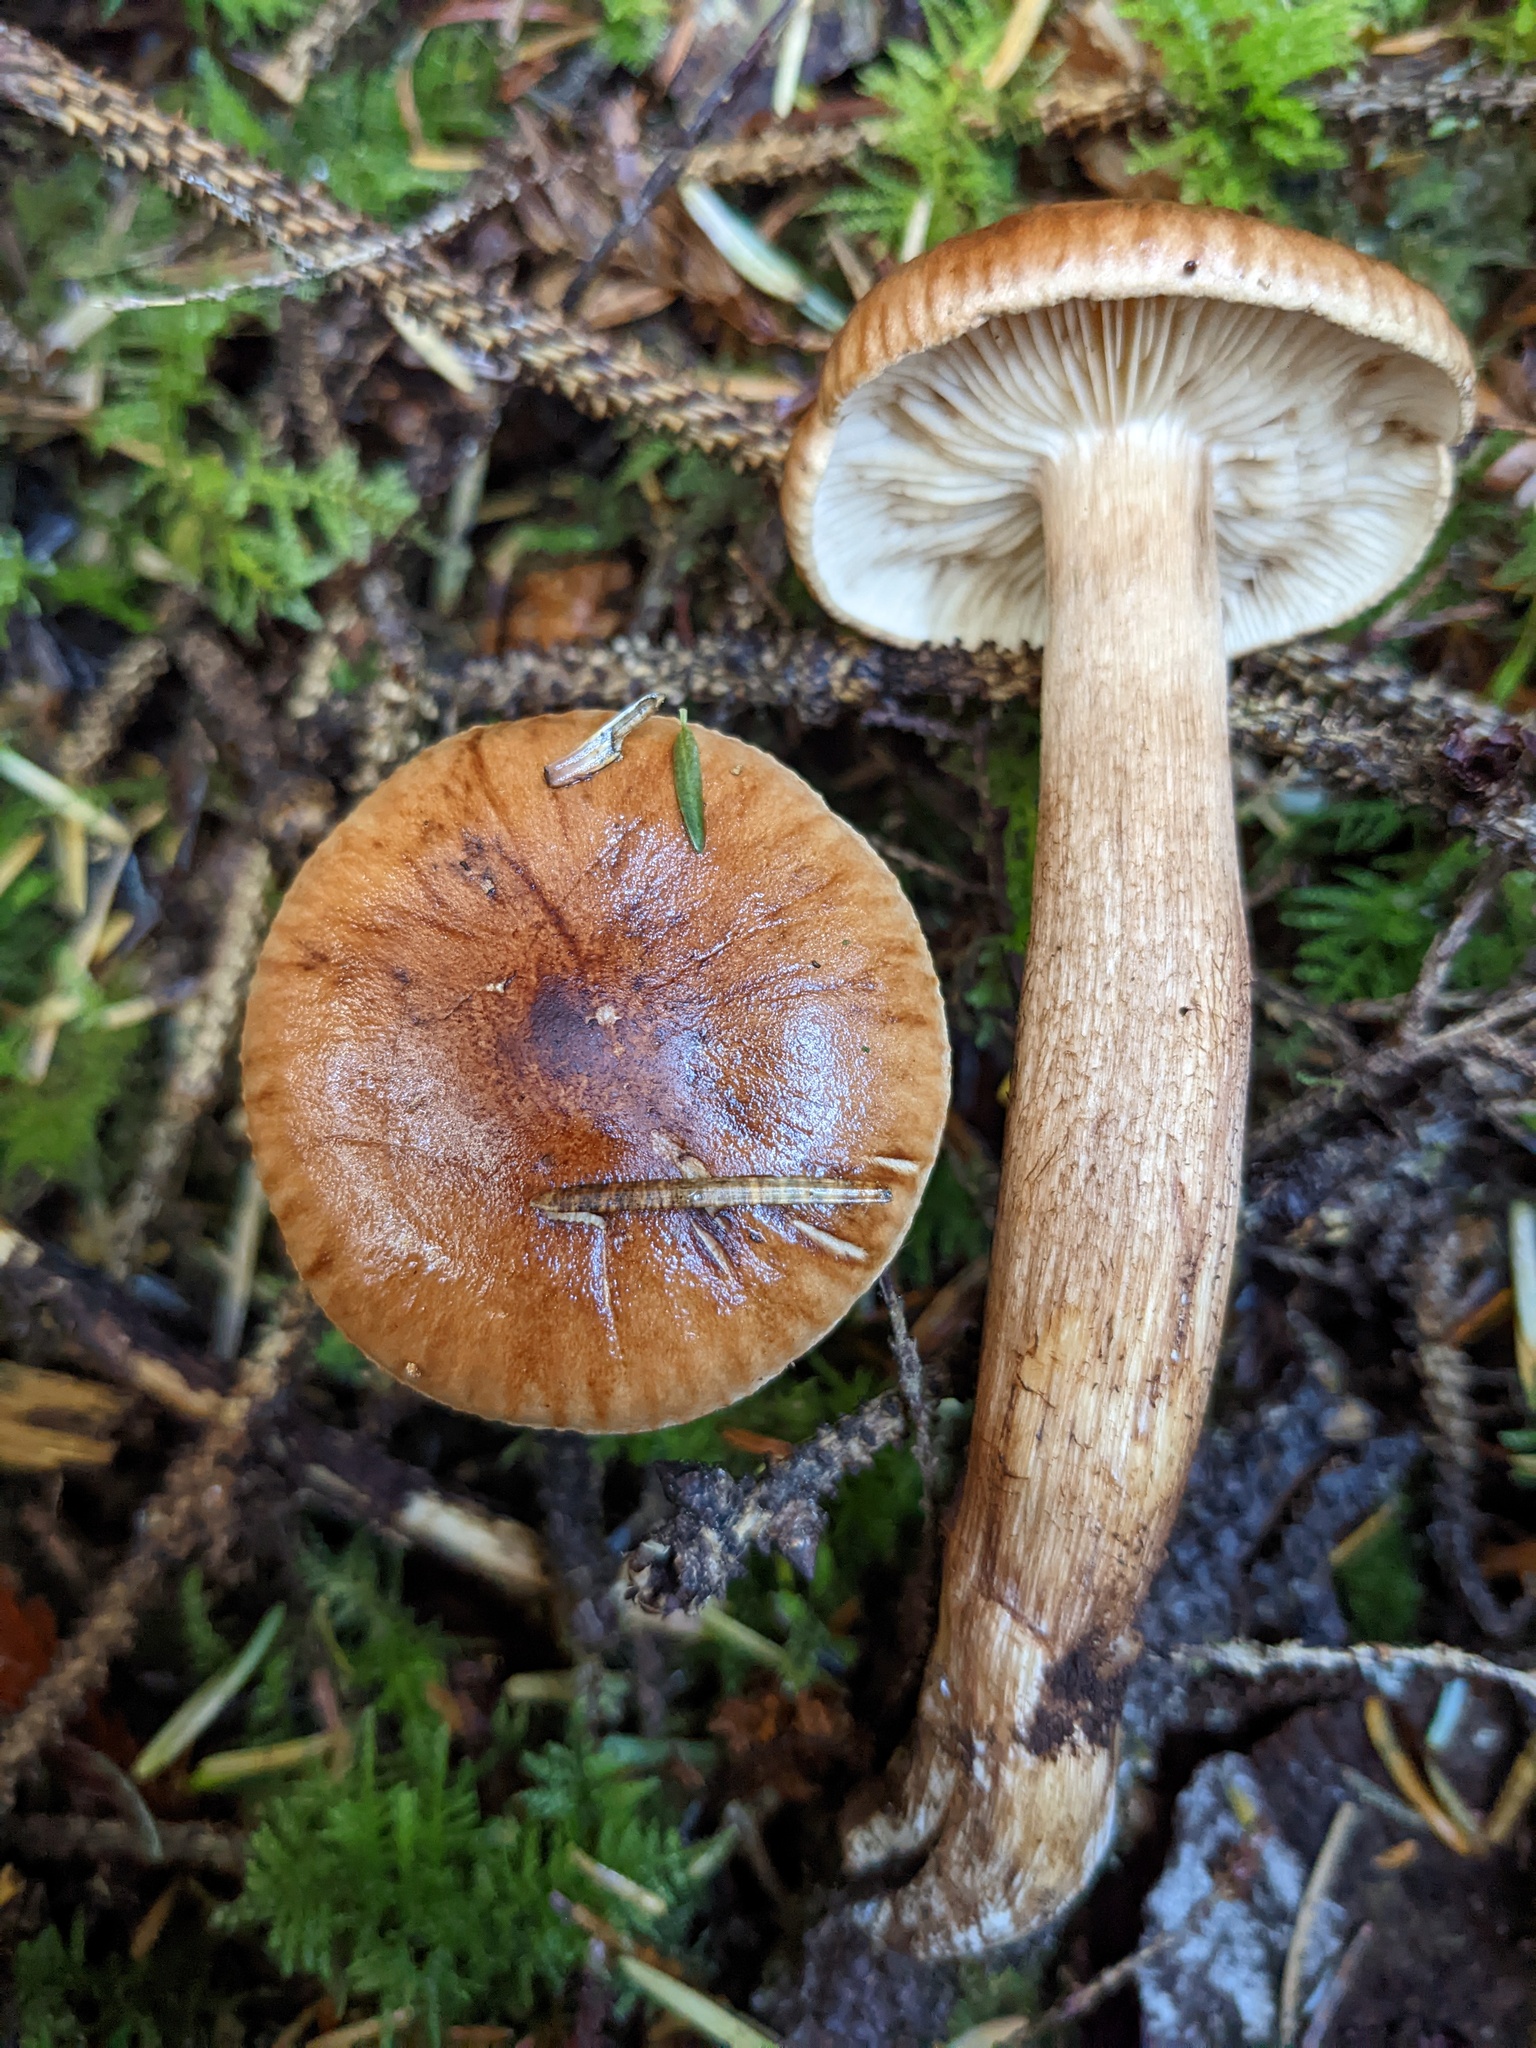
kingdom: Fungi
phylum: Basidiomycota
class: Agaricomycetes
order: Agaricales
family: Tricholomataceae
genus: Tricholoma
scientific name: Tricholoma vaccinum
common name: Scaly knight
